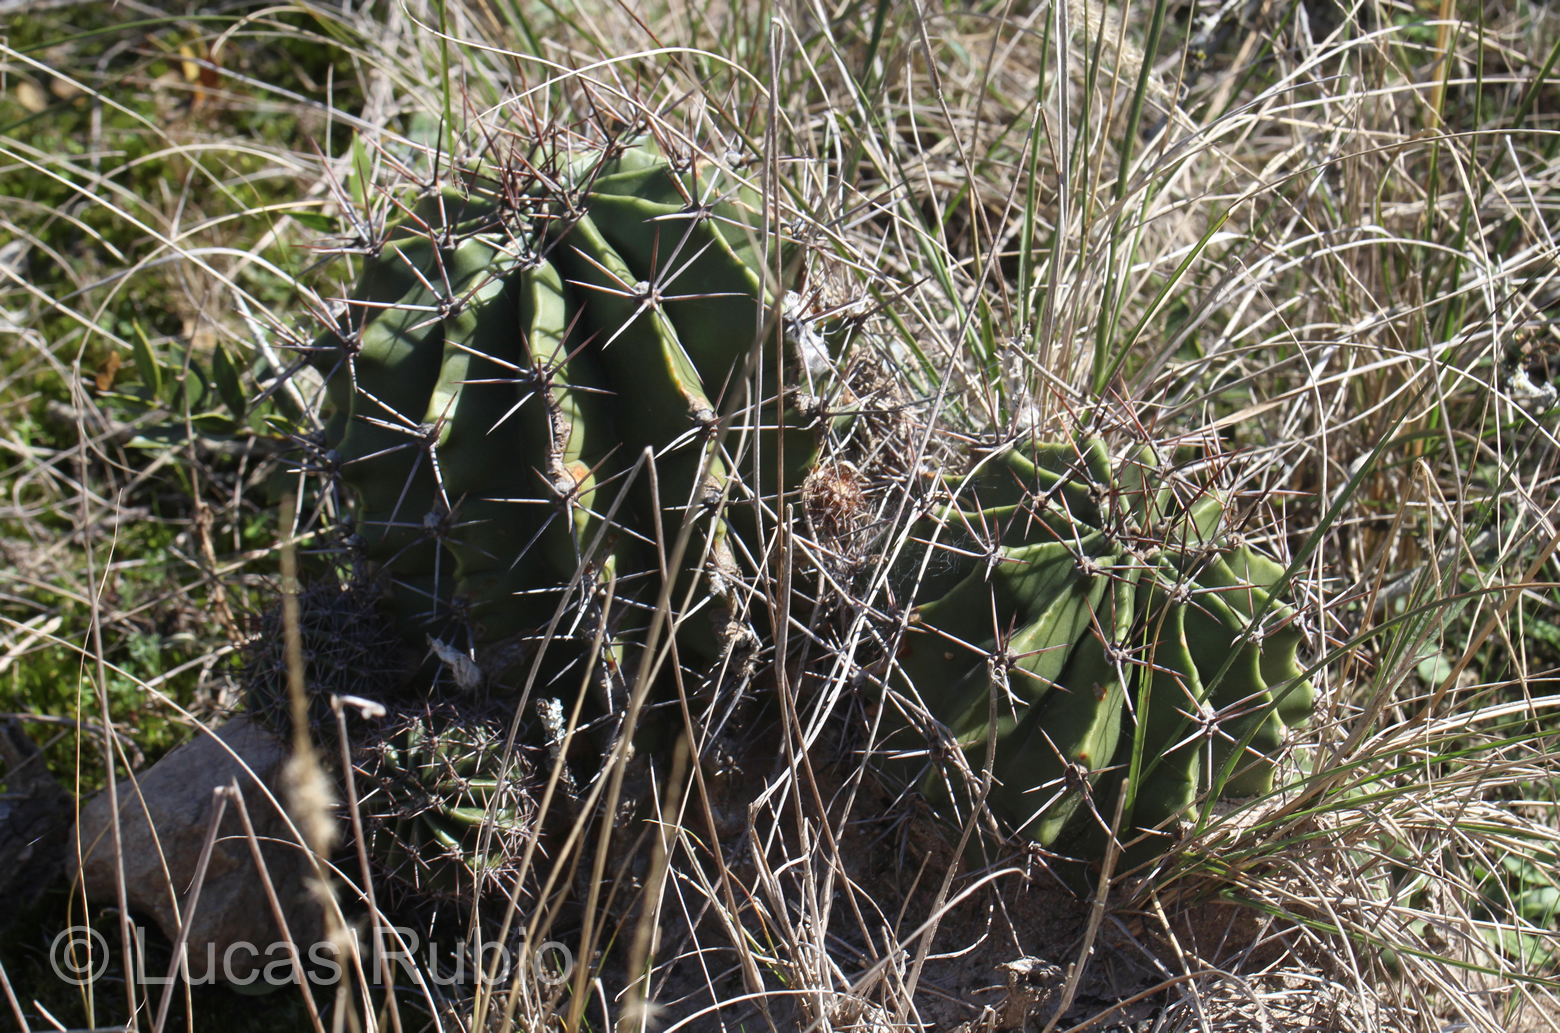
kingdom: Plantae
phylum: Tracheophyta
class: Magnoliopsida
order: Caryophyllales
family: Cactaceae
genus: Echinopsis
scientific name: Echinopsis oxygona
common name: Red easter-lily cactus
